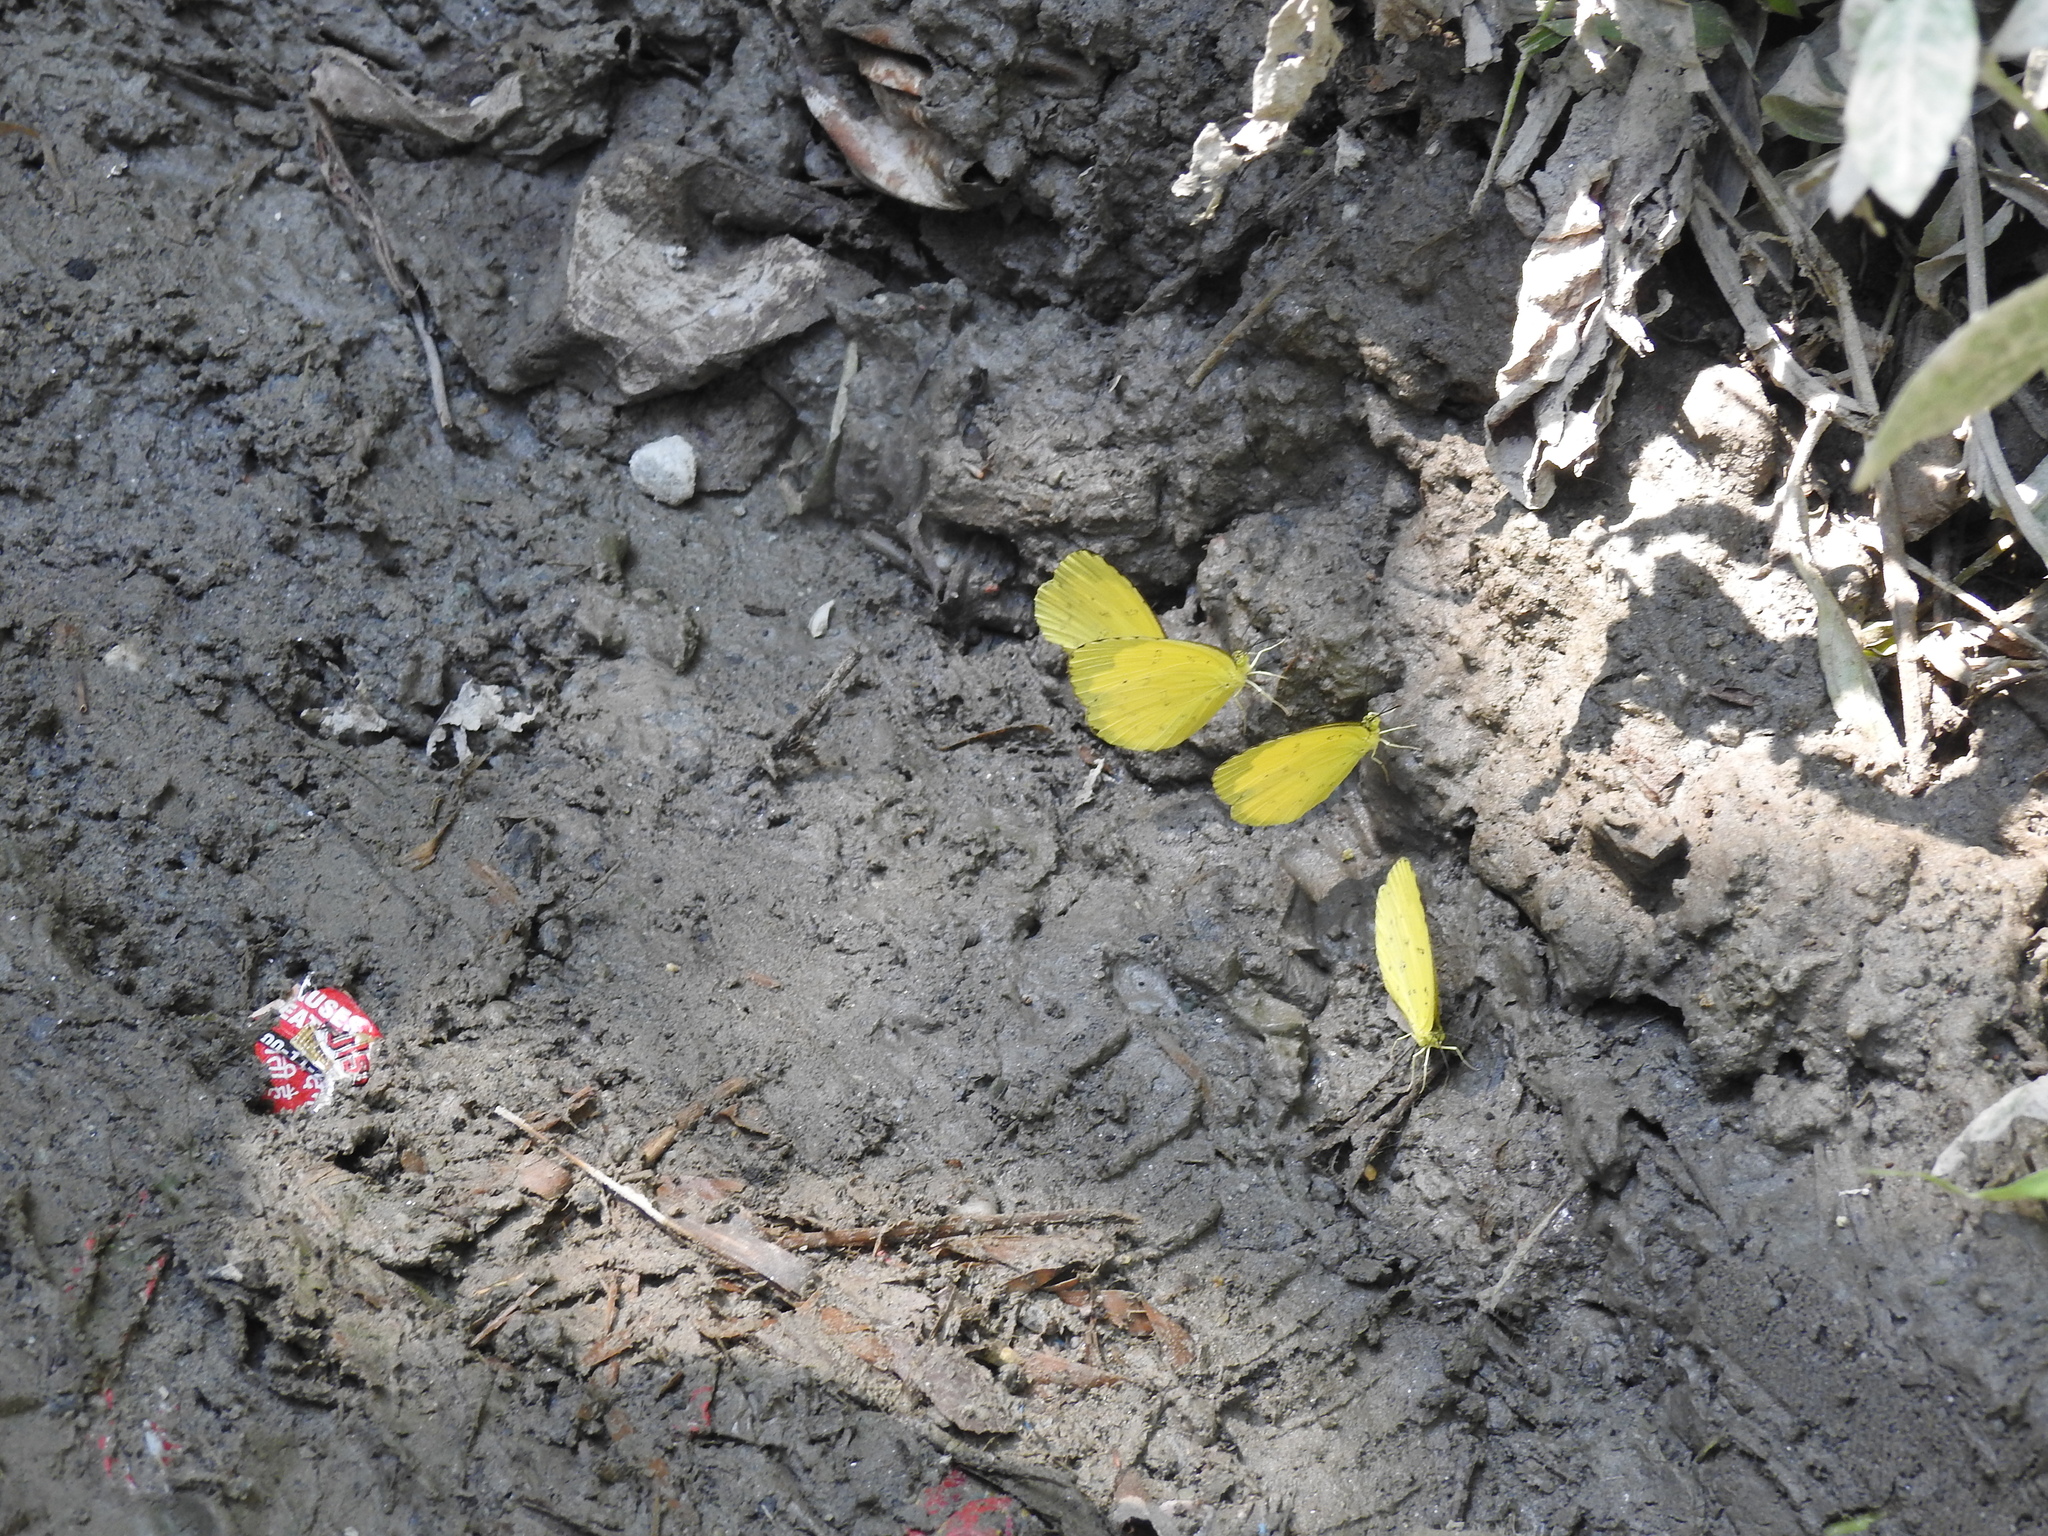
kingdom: Animalia
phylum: Arthropoda
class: Insecta
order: Lepidoptera
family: Pieridae
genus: Eurema
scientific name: Eurema blanda
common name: Three-spot grass yellow
